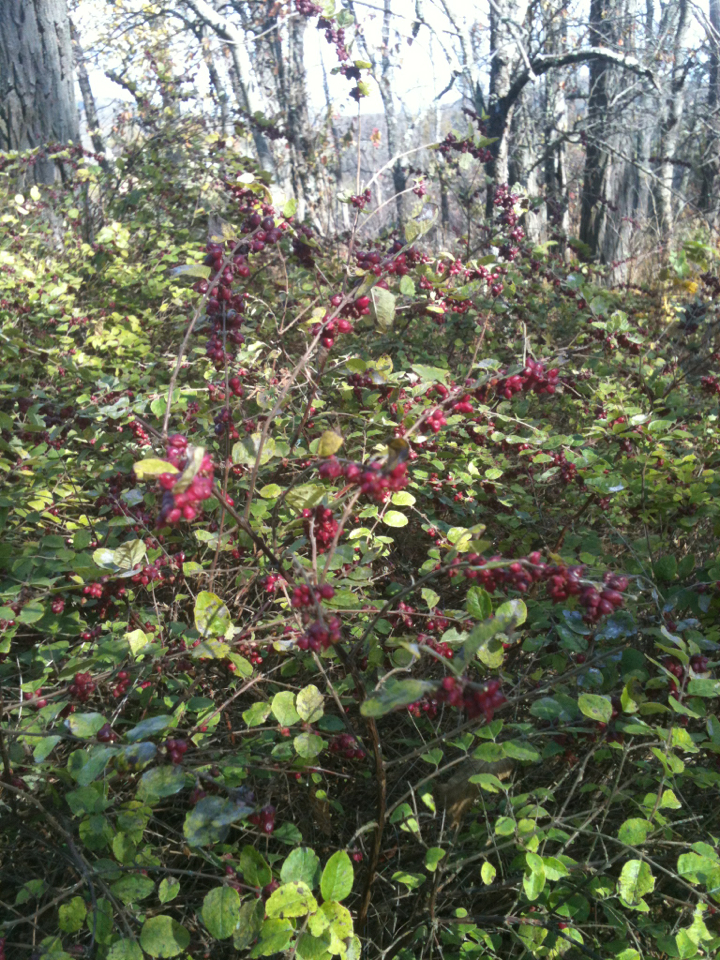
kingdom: Plantae
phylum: Tracheophyta
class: Magnoliopsida
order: Dipsacales
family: Caprifoliaceae
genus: Symphoricarpos
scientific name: Symphoricarpos orbiculatus
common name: Coralberry
